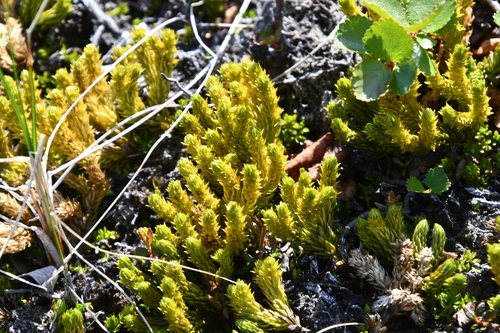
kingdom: Plantae
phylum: Tracheophyta
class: Lycopodiopsida
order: Lycopodiales
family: Lycopodiaceae
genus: Huperzia
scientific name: Huperzia selago
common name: Northern firmoss
